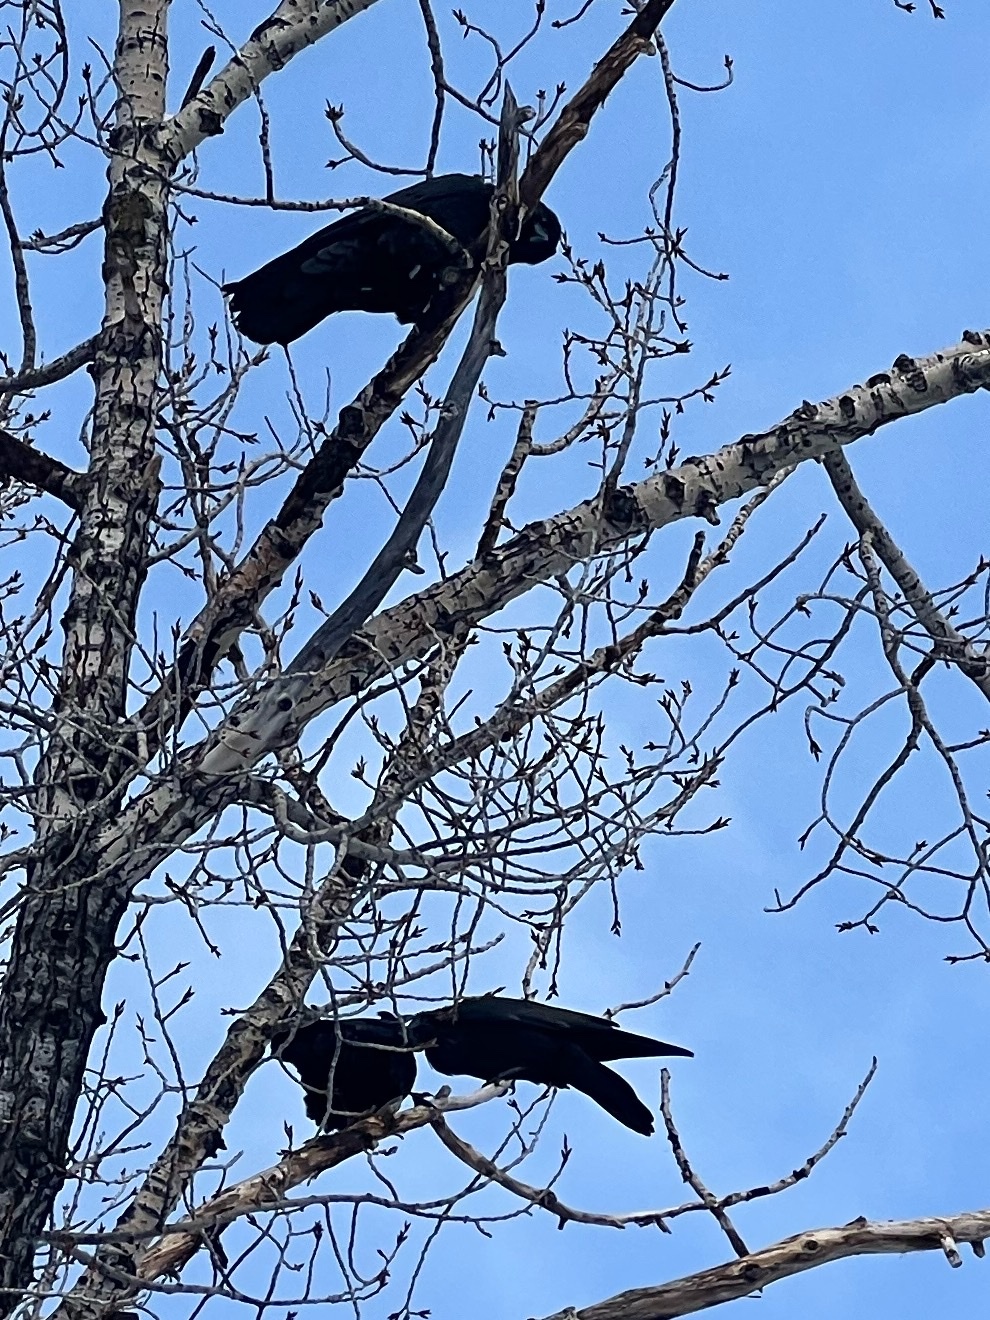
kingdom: Animalia
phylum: Chordata
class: Aves
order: Passeriformes
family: Corvidae
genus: Corvus
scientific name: Corvus corax
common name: Common raven
